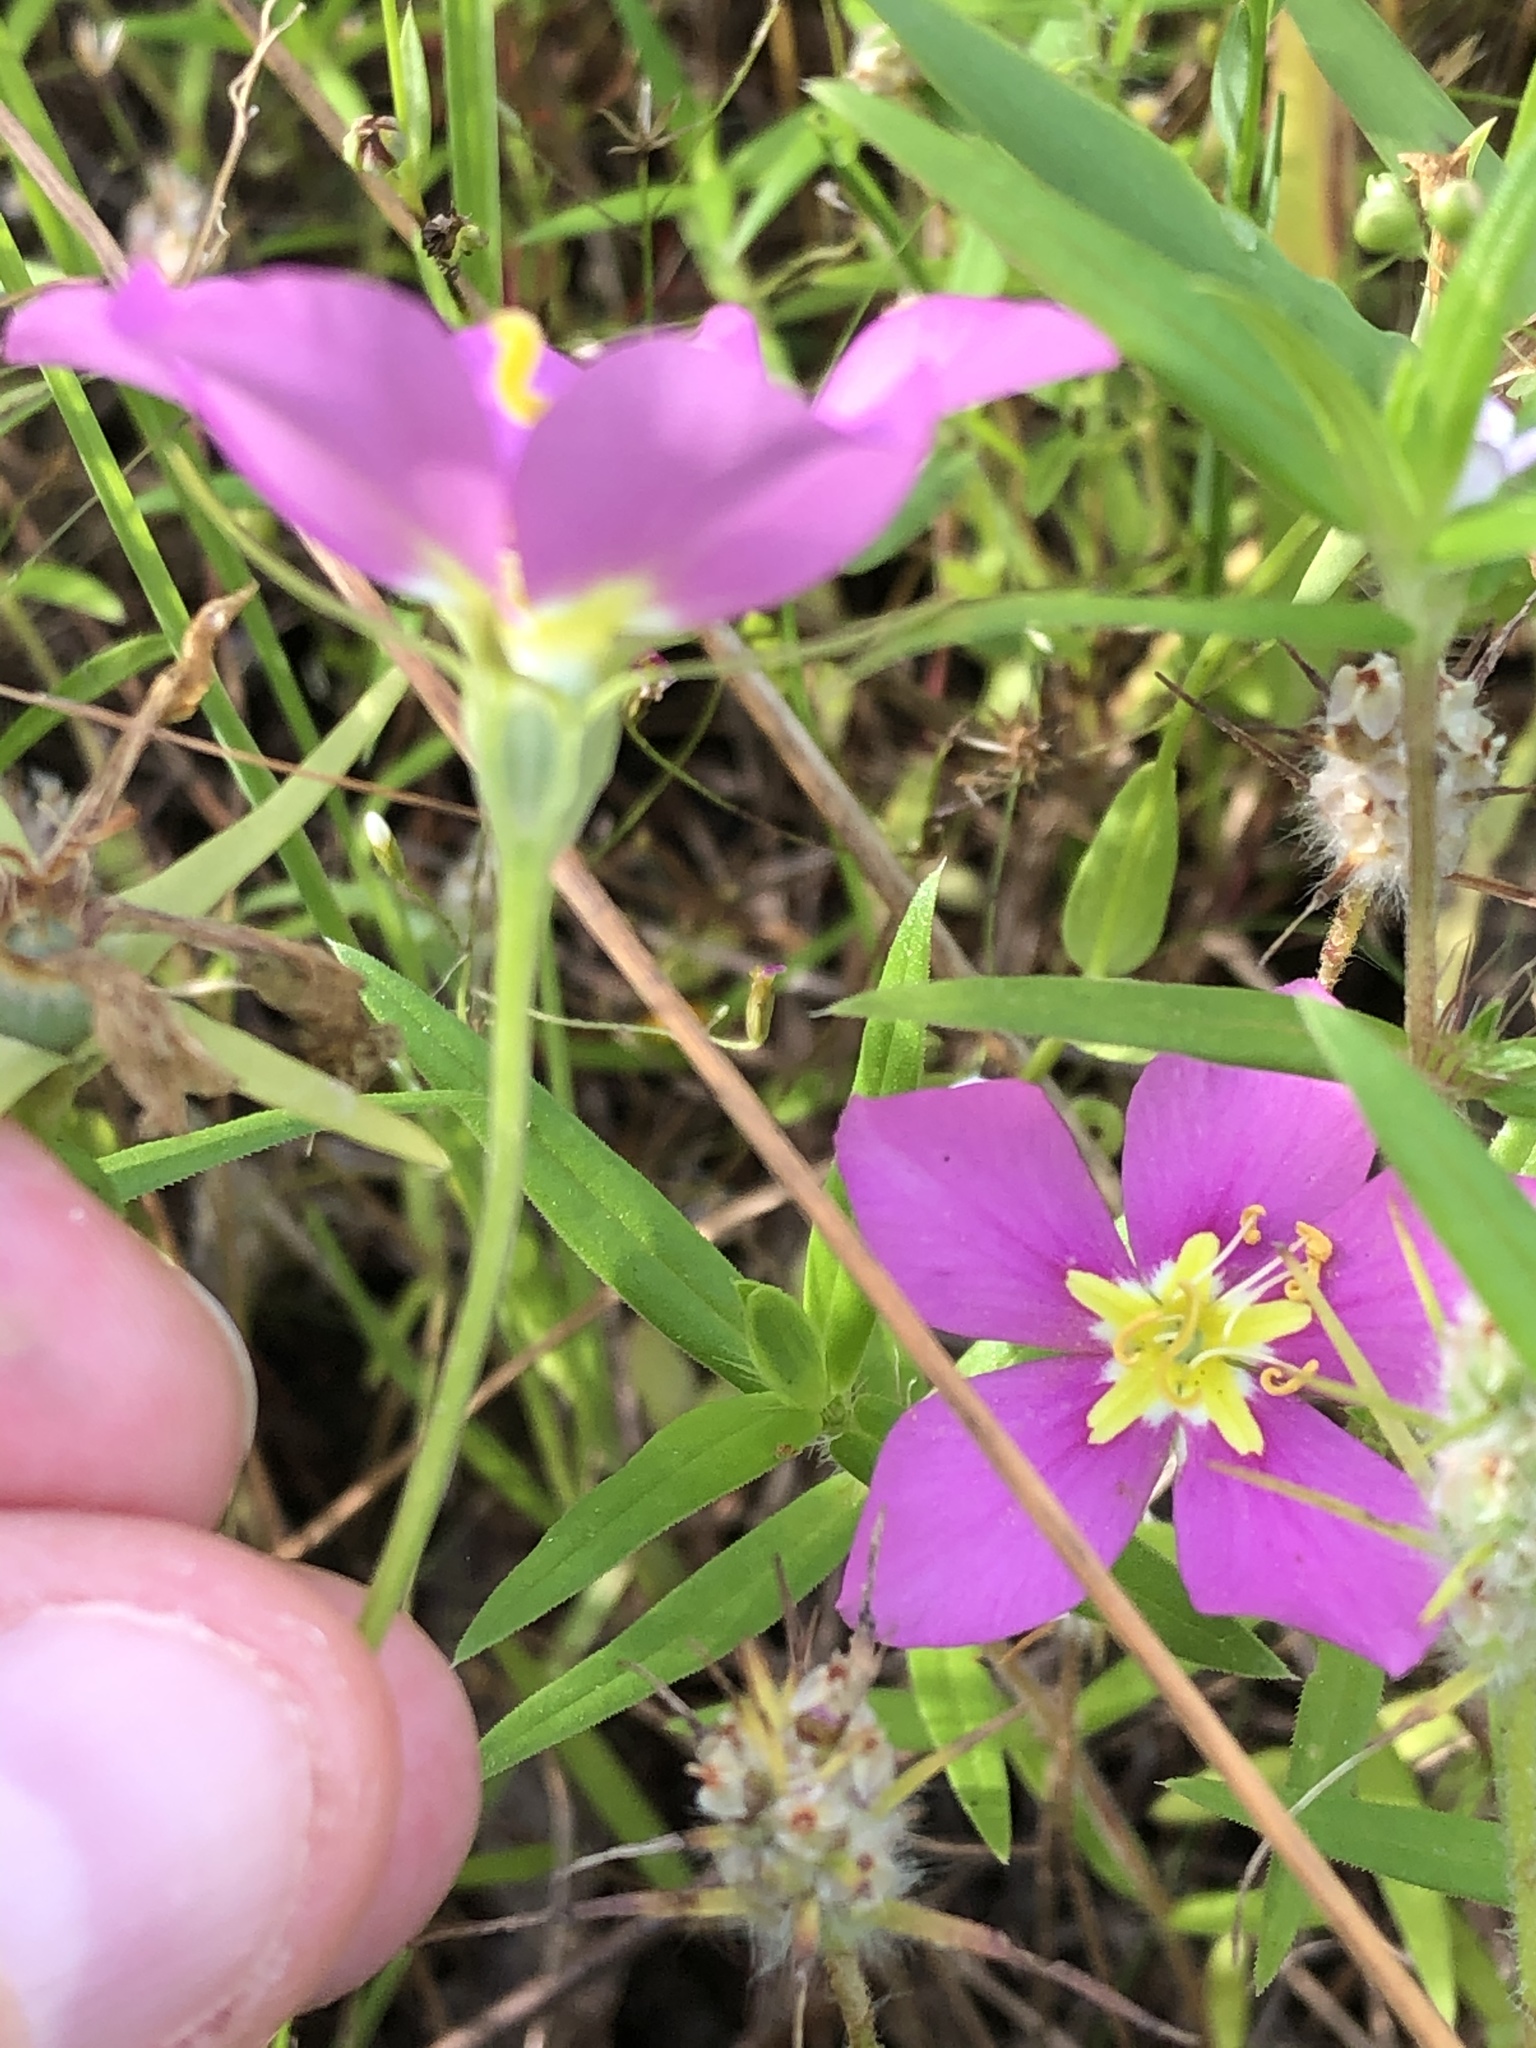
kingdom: Plantae
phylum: Tracheophyta
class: Magnoliopsida
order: Gentianales
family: Gentianaceae
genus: Sabatia
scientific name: Sabatia campestris
